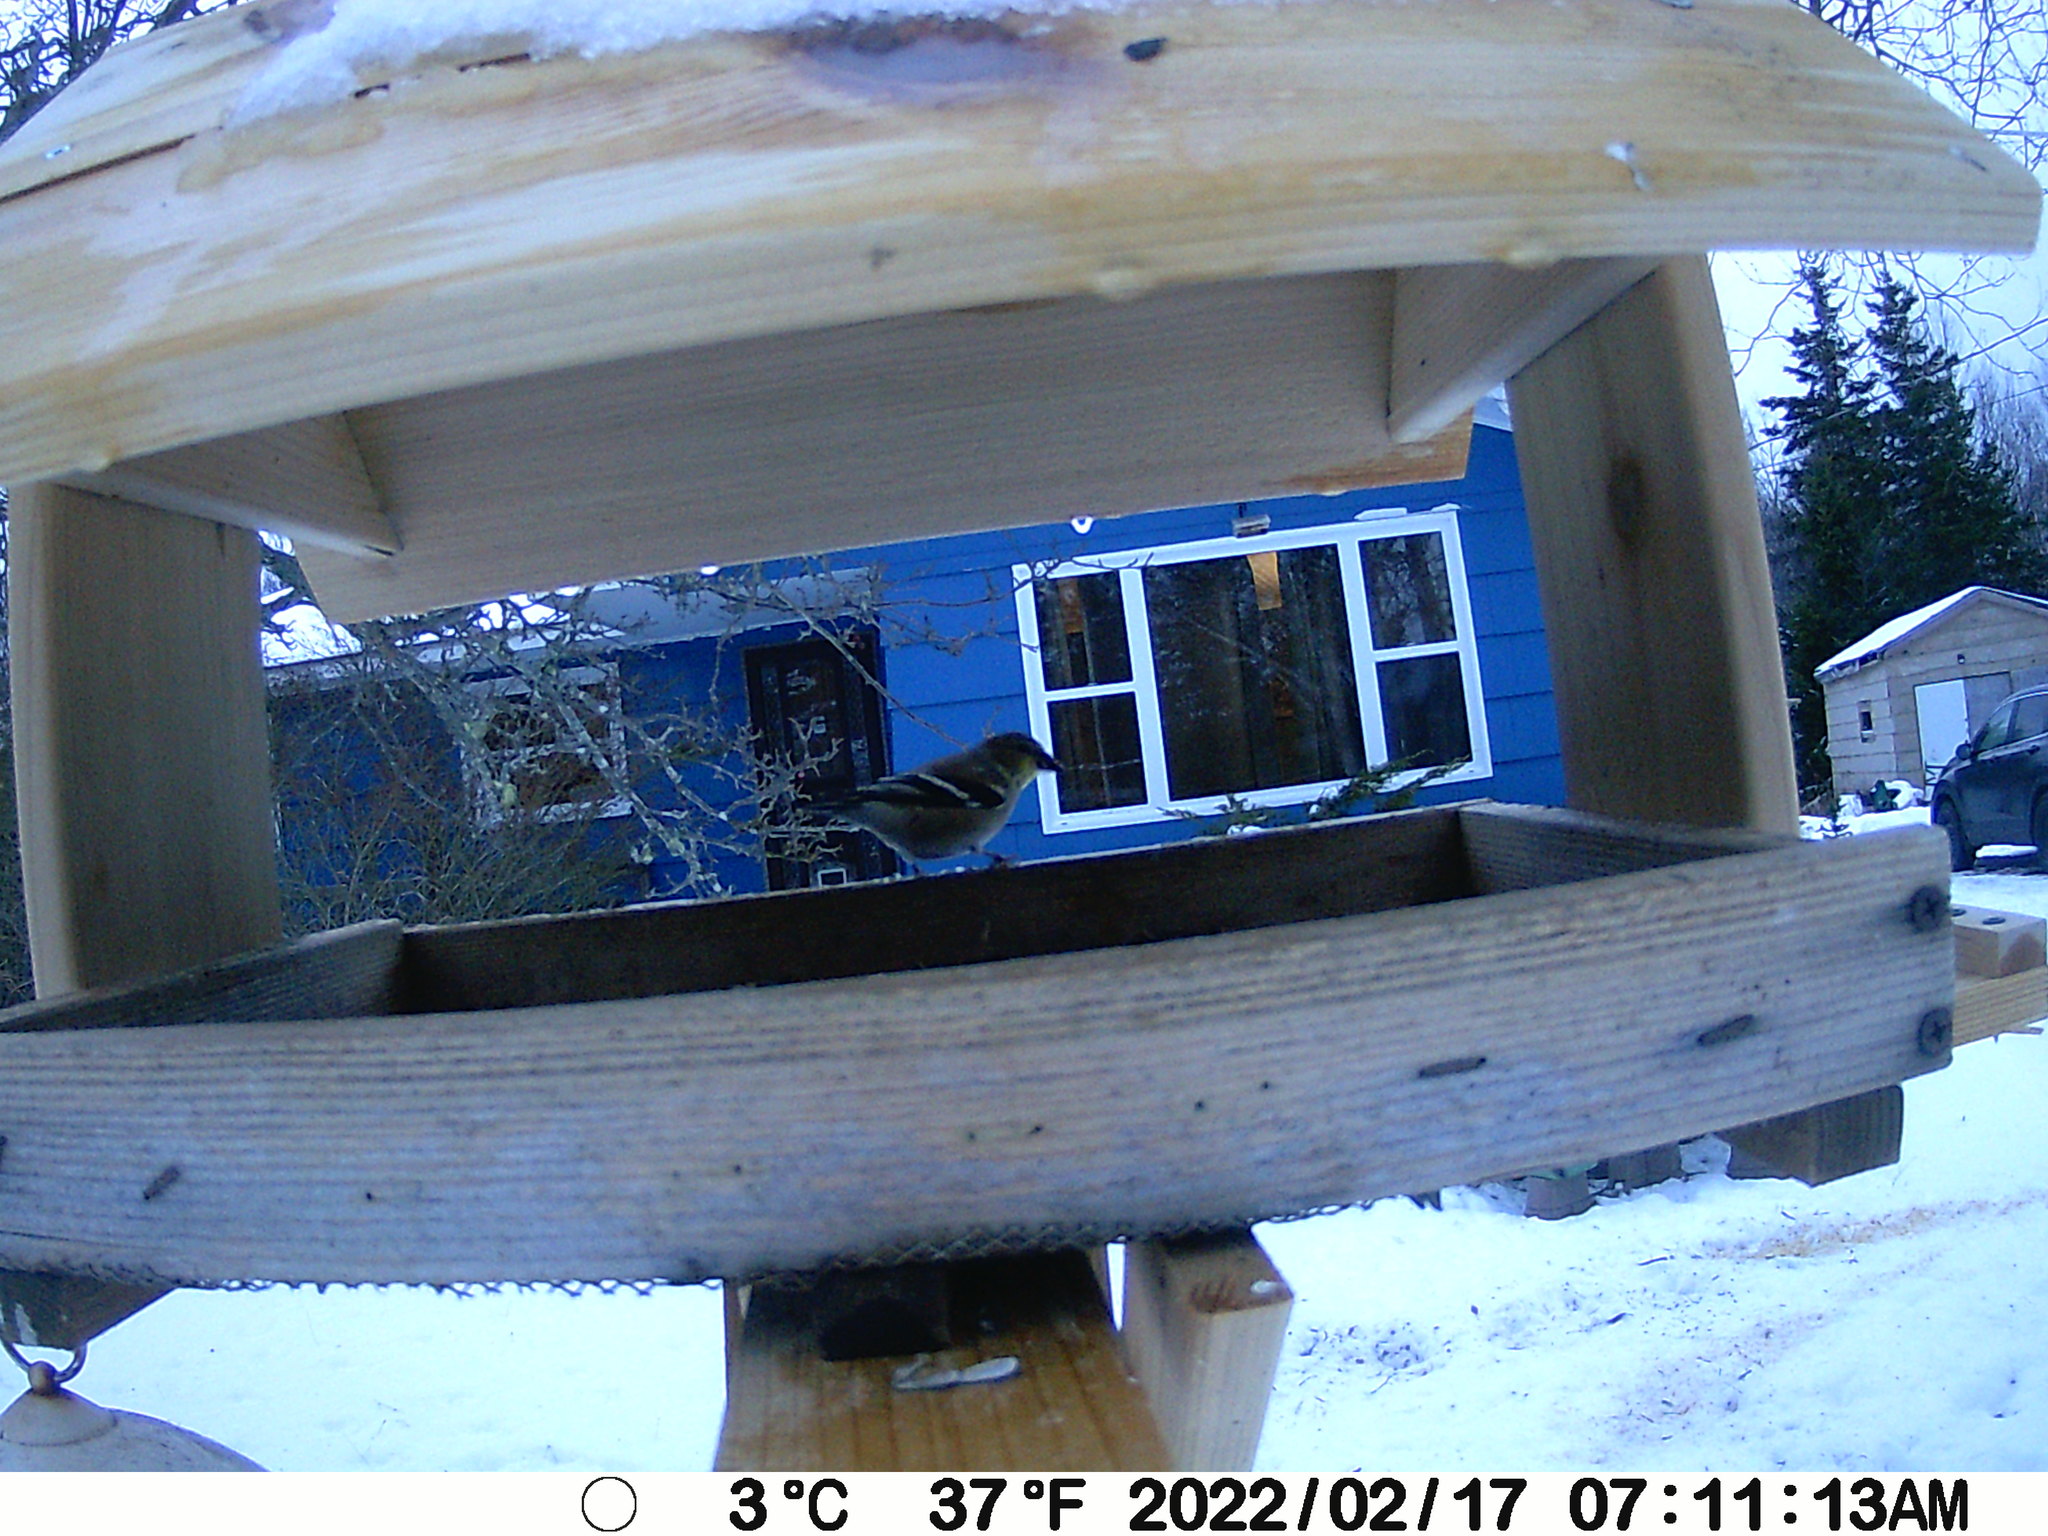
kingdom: Animalia
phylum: Chordata
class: Aves
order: Passeriformes
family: Fringillidae
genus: Spinus
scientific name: Spinus tristis
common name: American goldfinch
